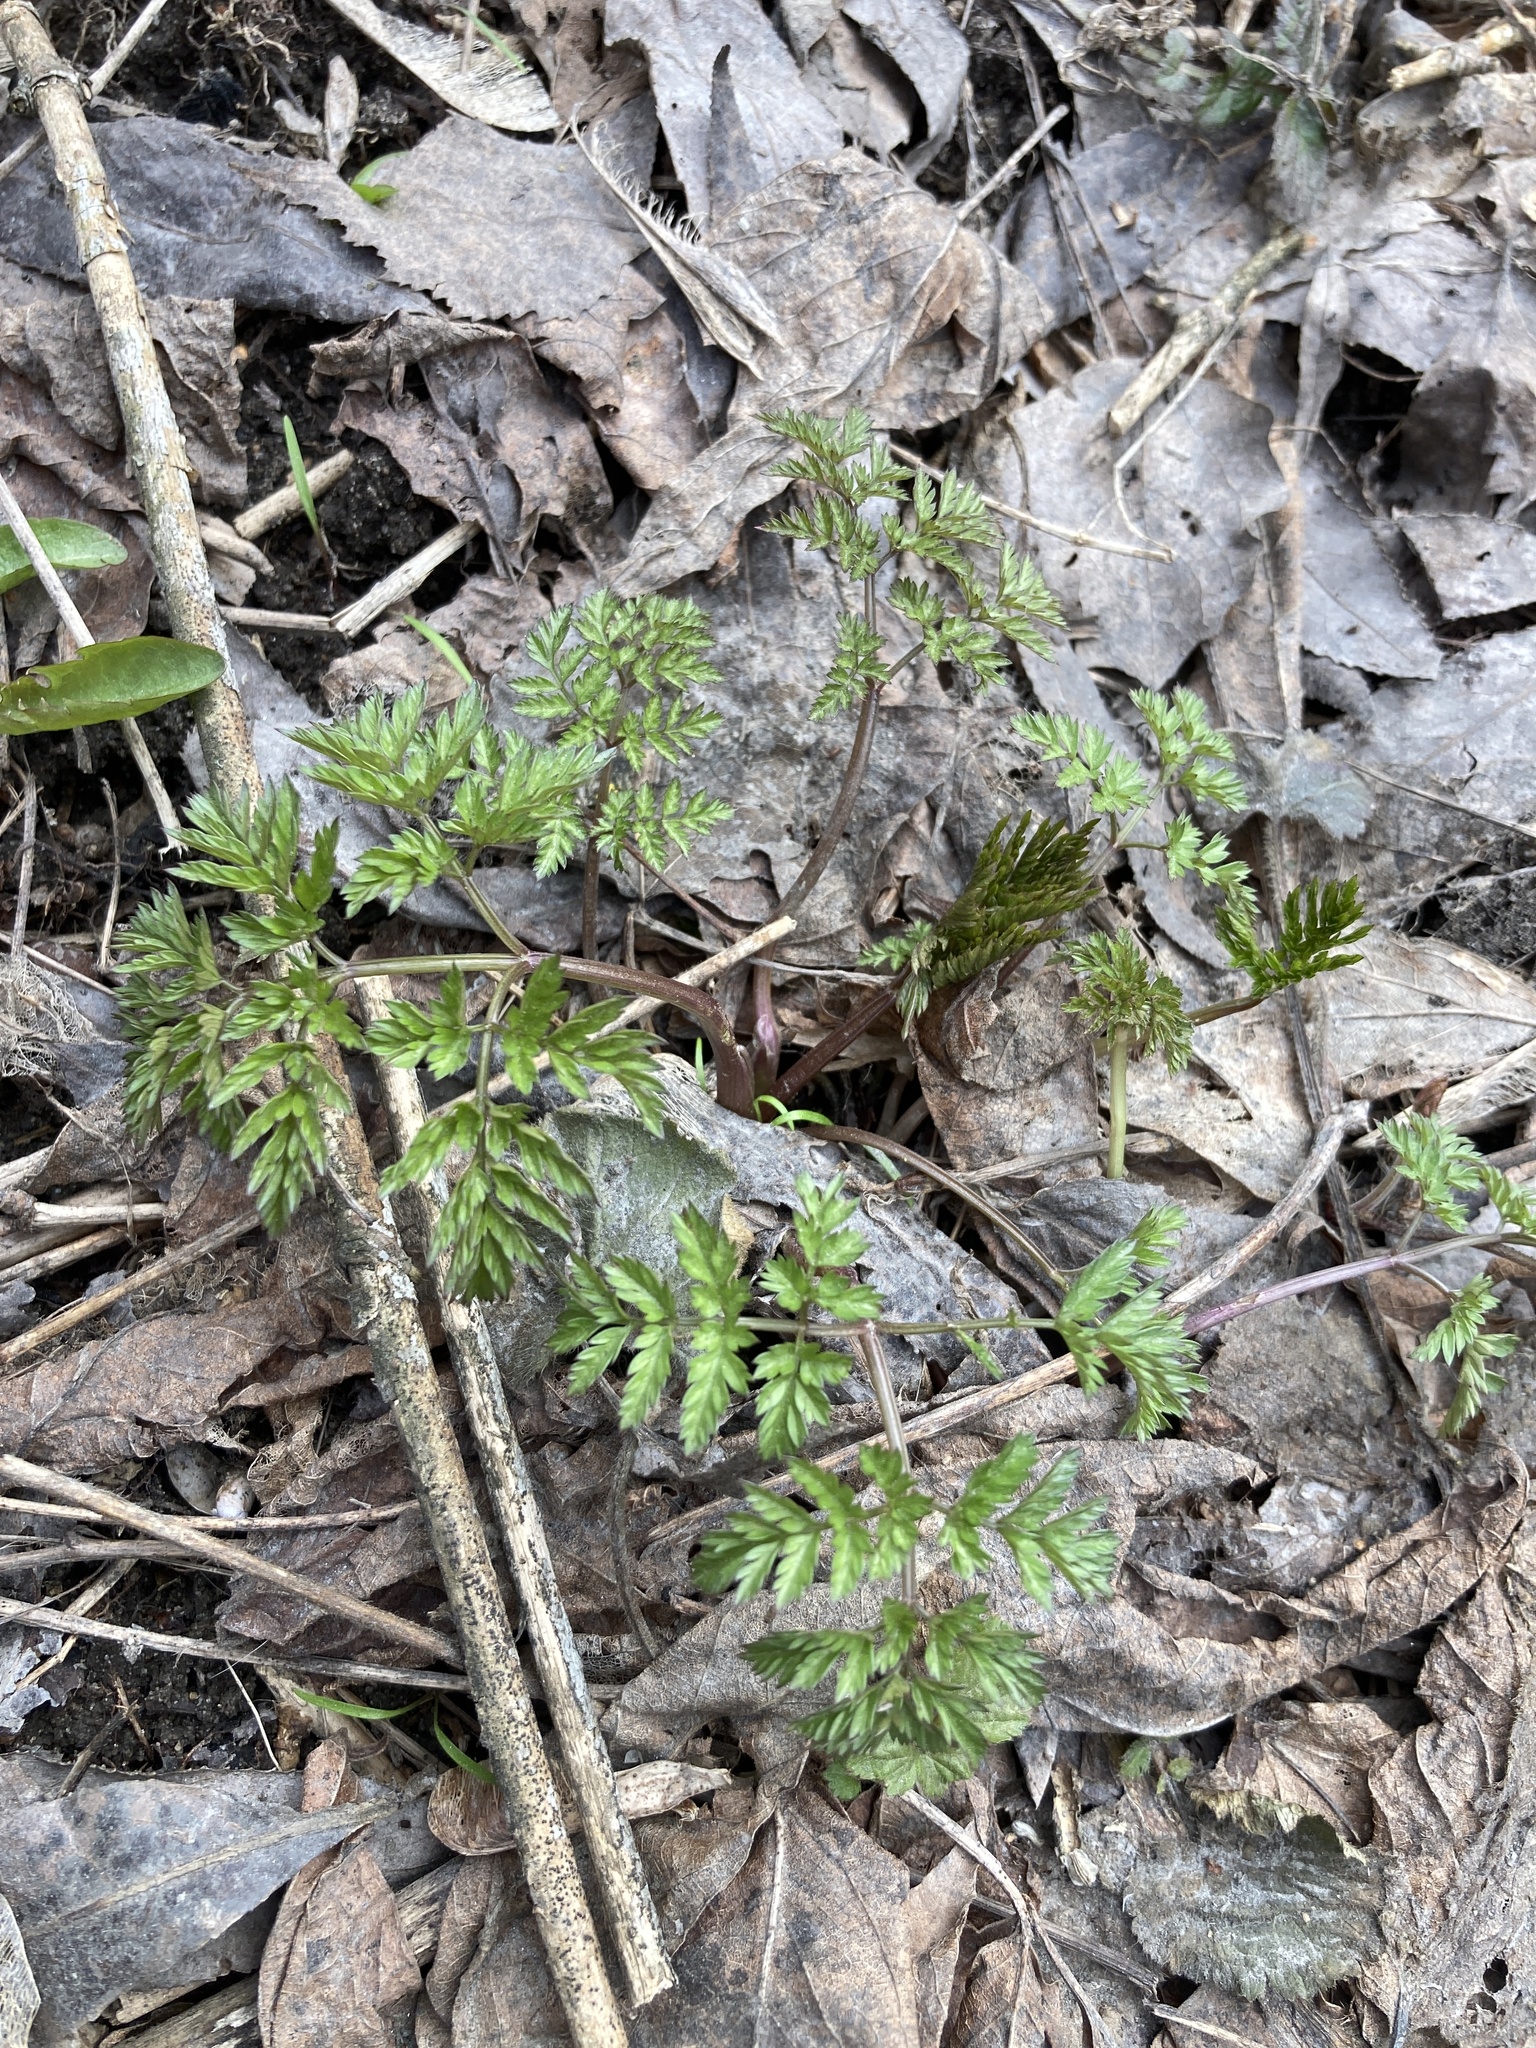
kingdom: Plantae
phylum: Tracheophyta
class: Magnoliopsida
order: Apiales
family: Apiaceae
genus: Anthriscus
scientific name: Anthriscus sylvestris
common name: Cow parsley
